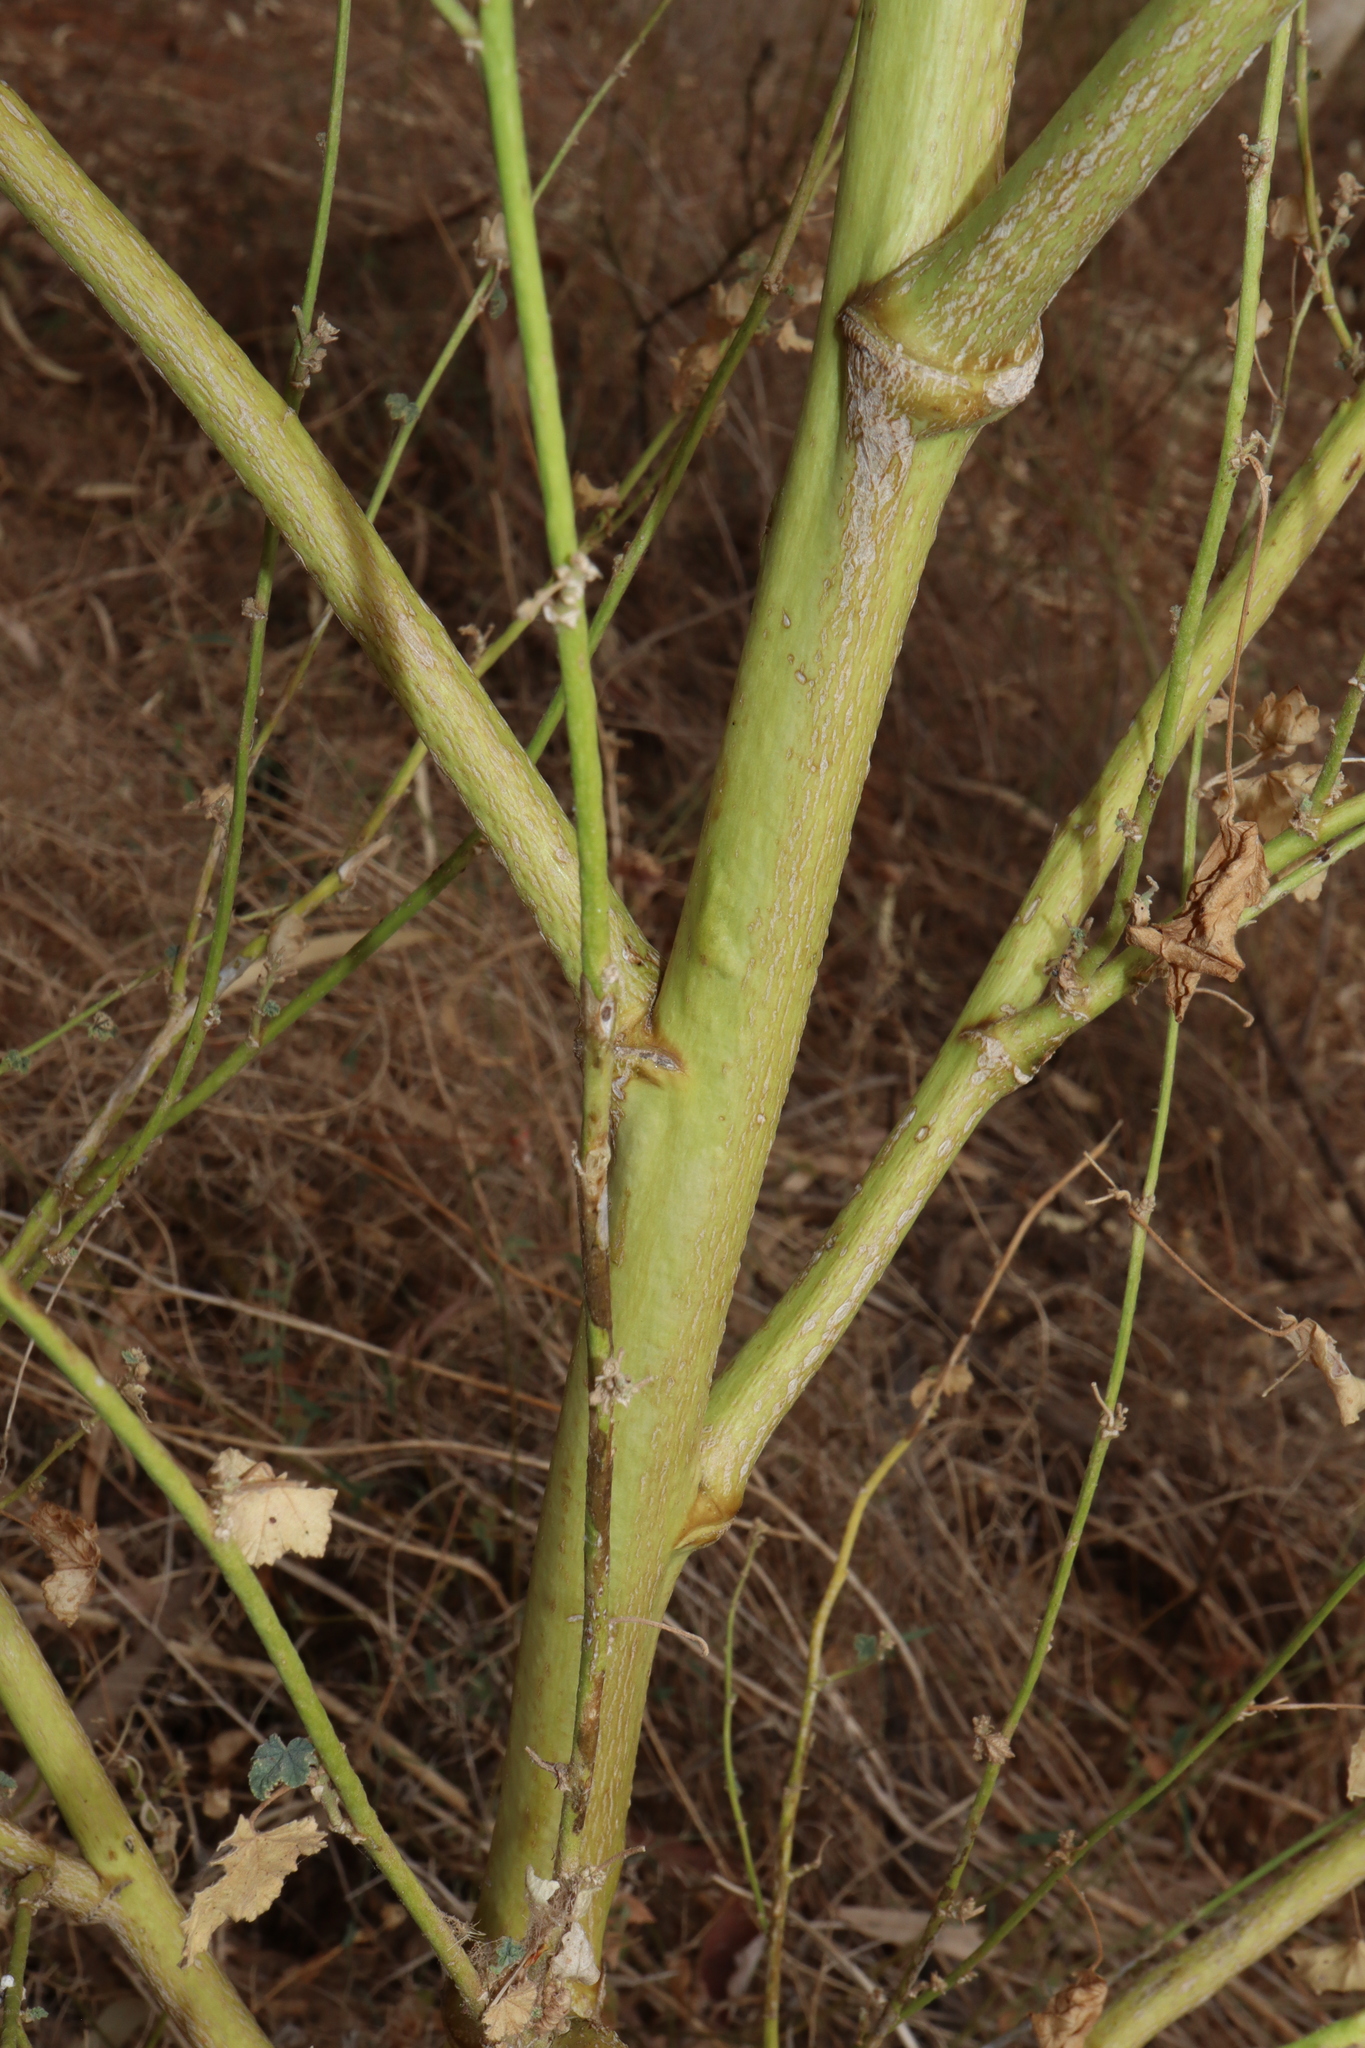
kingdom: Plantae
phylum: Tracheophyta
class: Magnoliopsida
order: Malvales
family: Malvaceae
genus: Malva
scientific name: Malva weinmanniana
